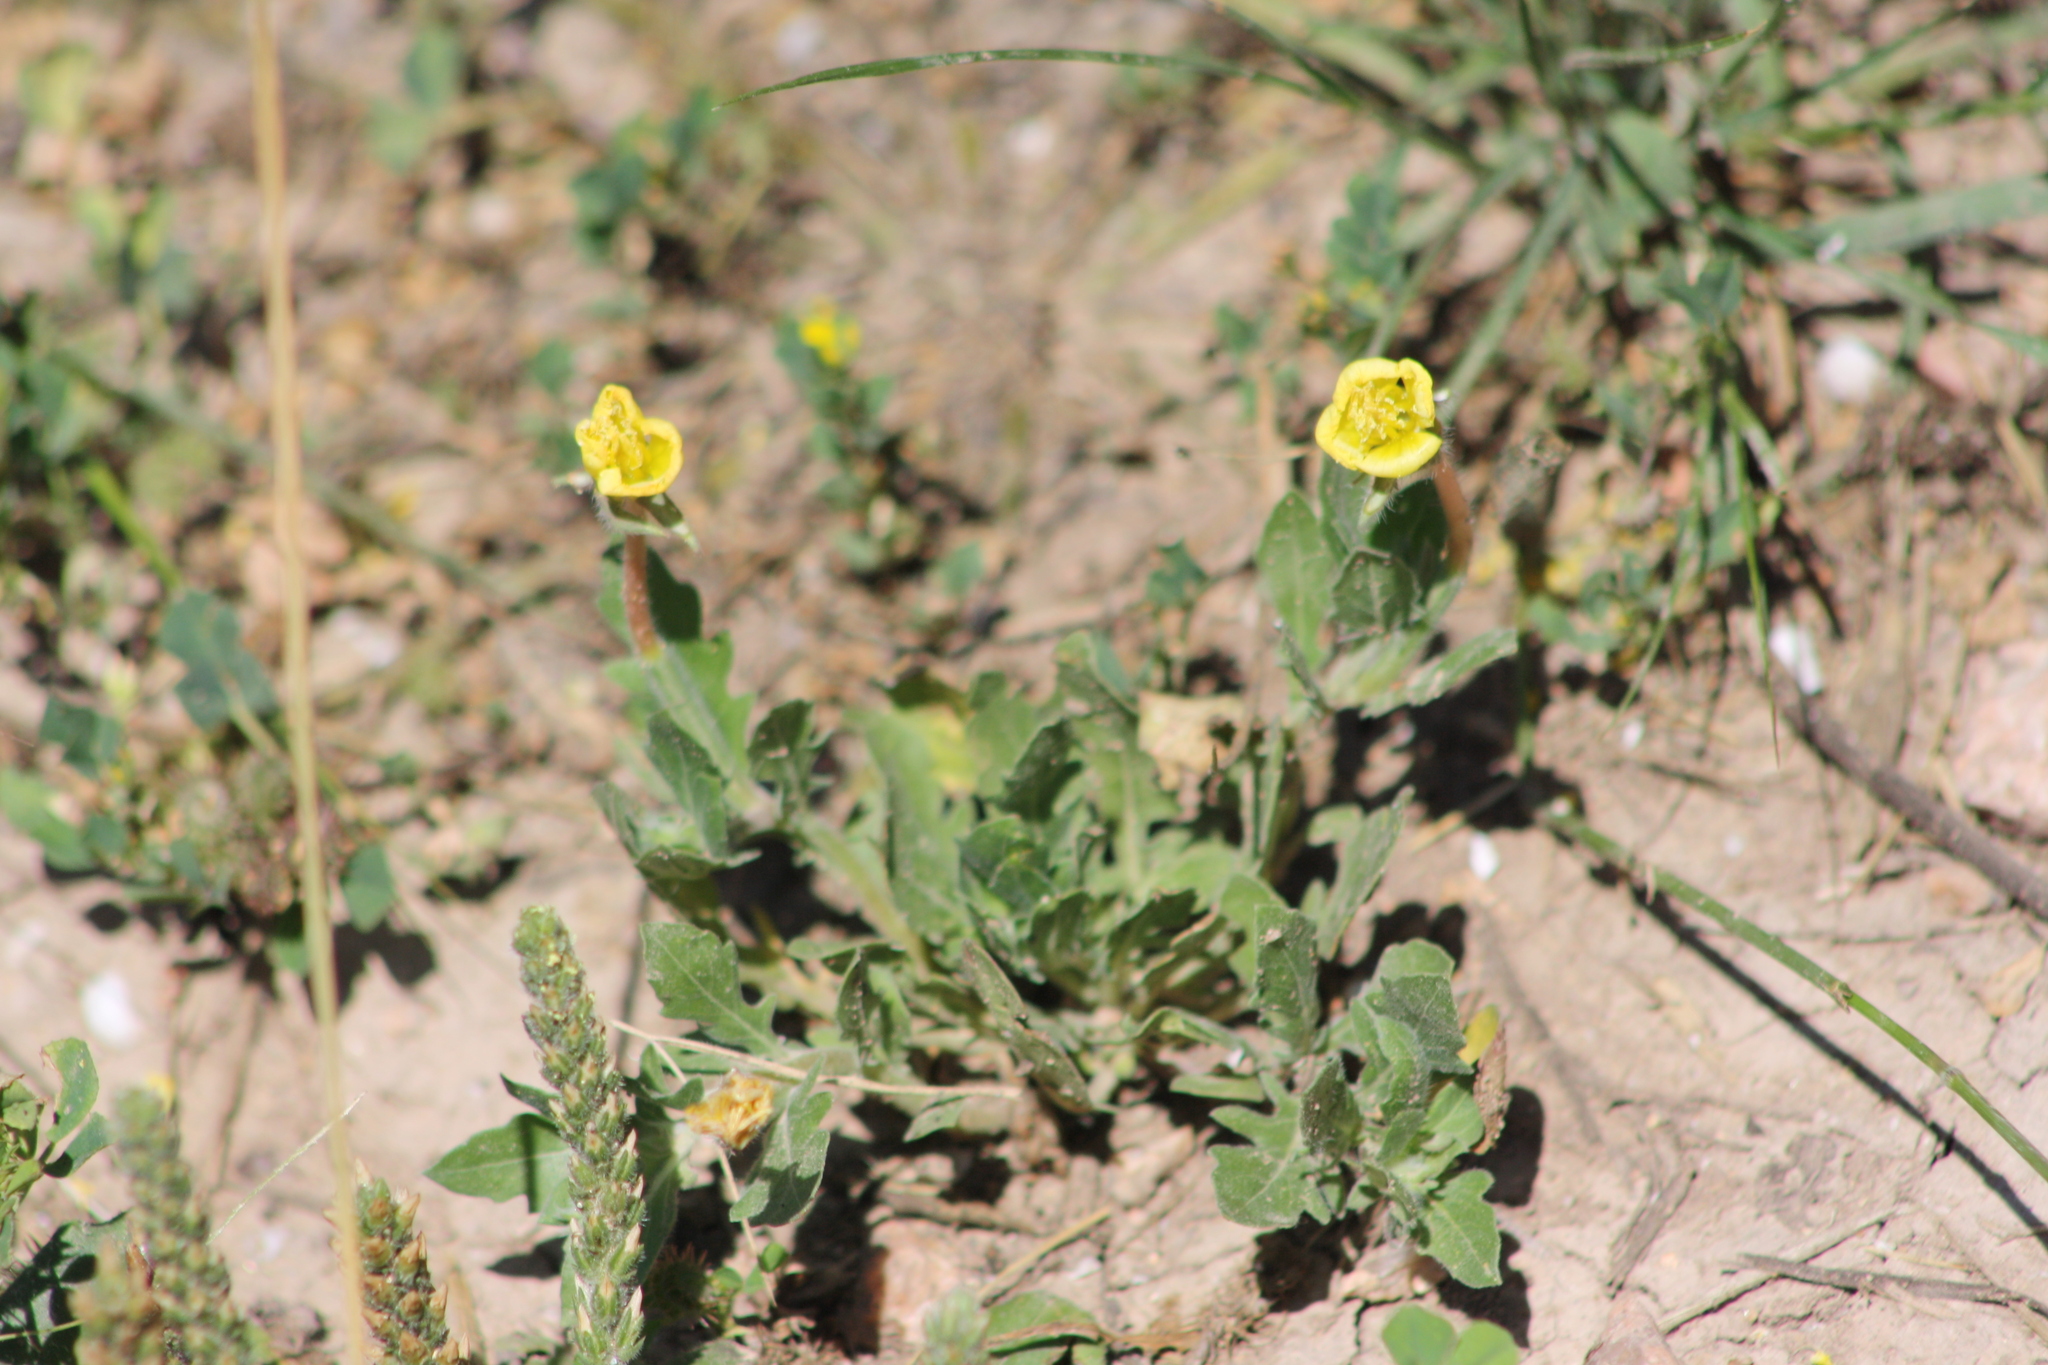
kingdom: Plantae
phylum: Tracheophyta
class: Magnoliopsida
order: Myrtales
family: Onagraceae
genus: Oenothera
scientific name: Oenothera laciniata
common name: Cut-leaved evening-primrose
